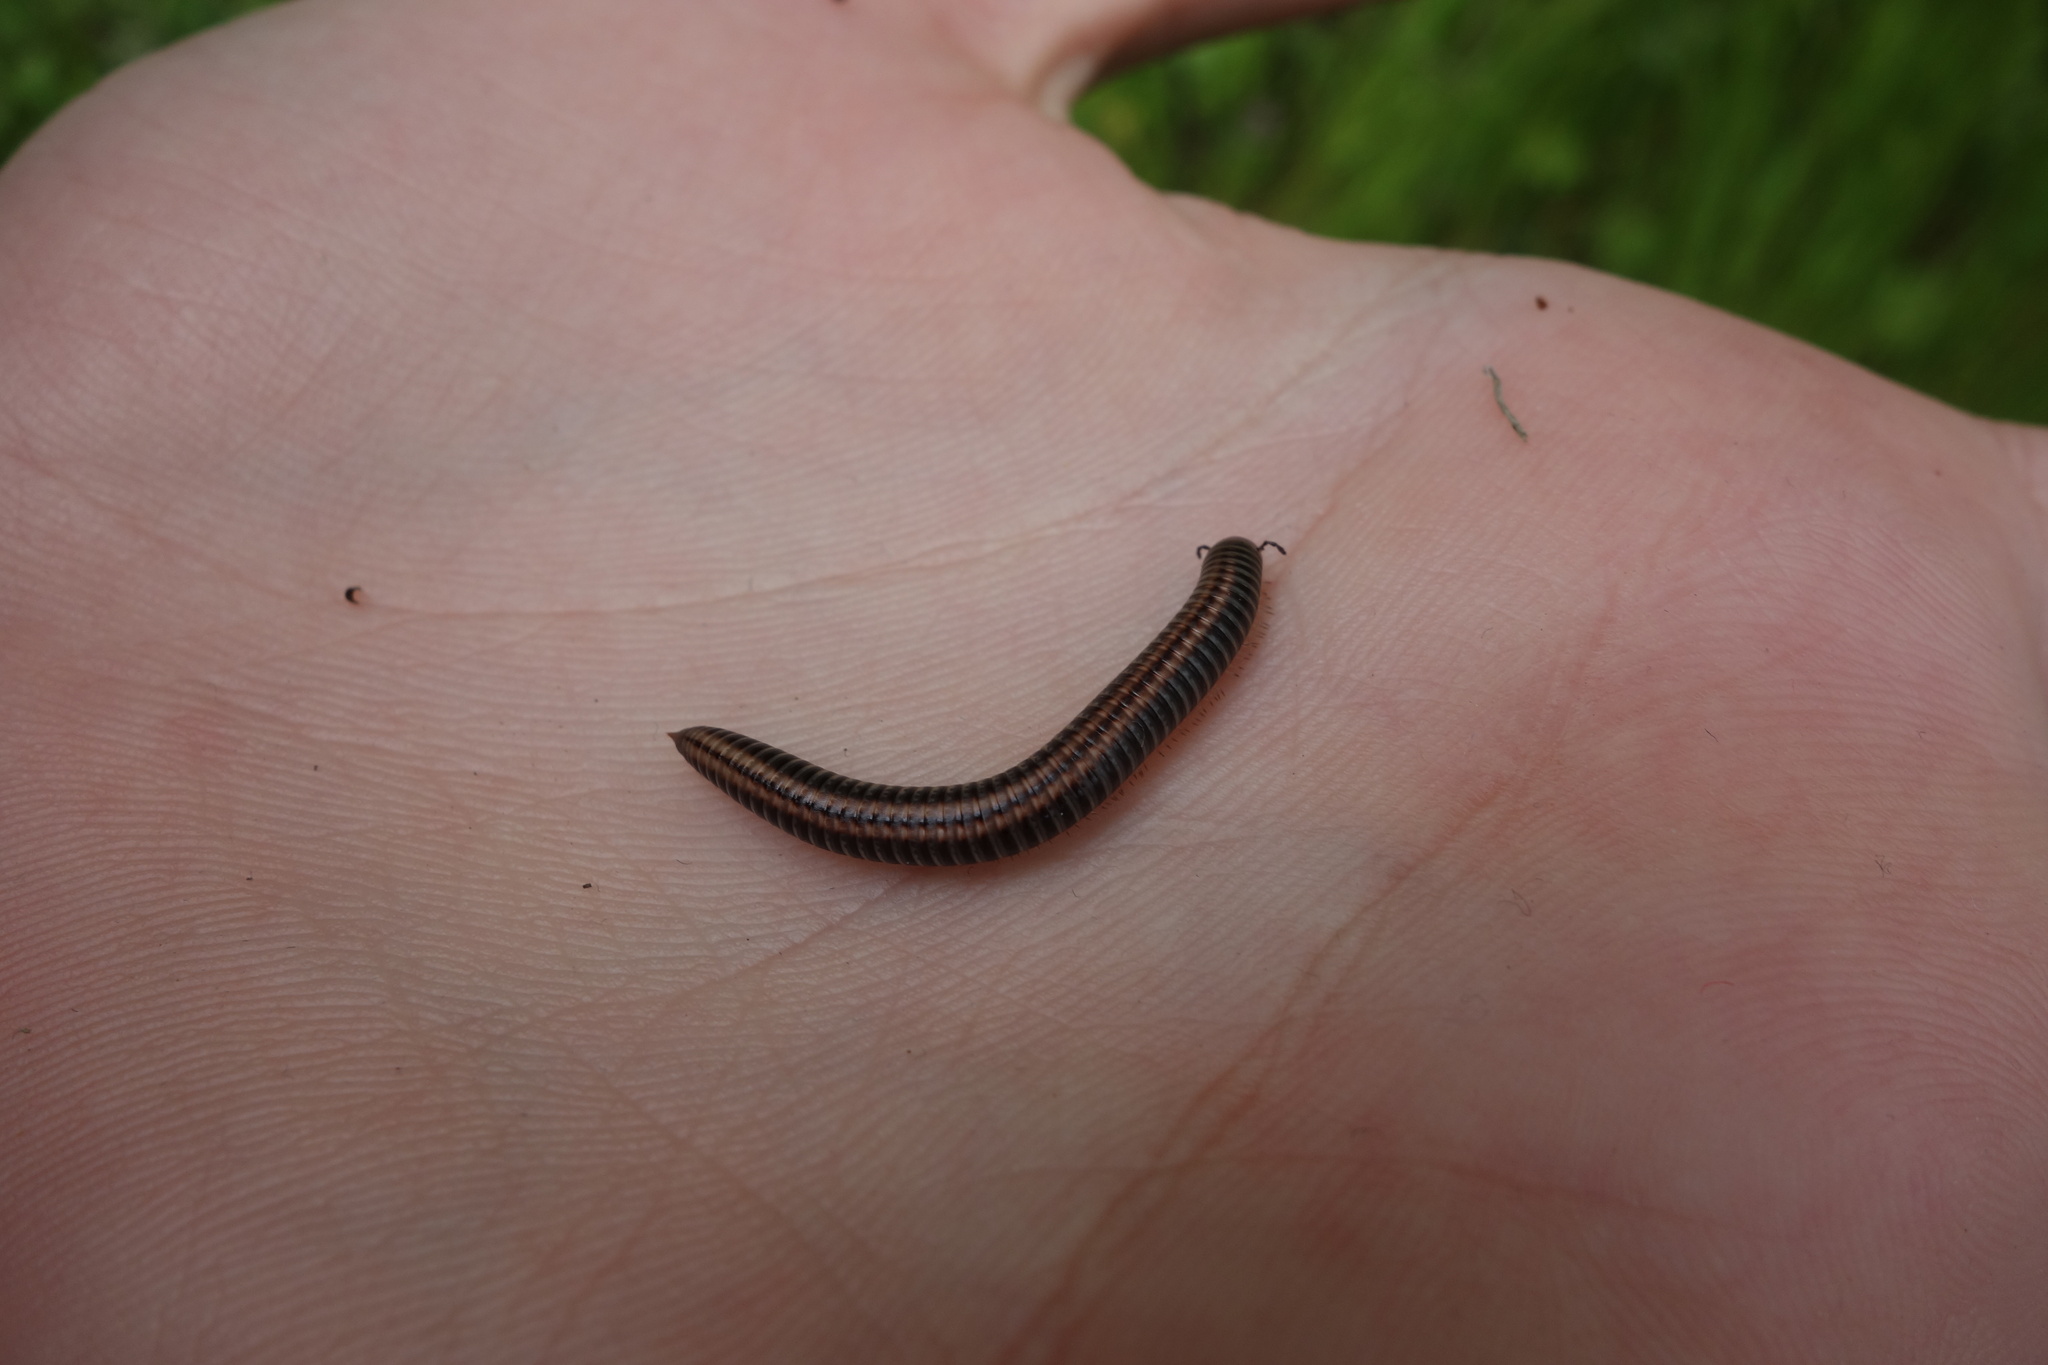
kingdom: Animalia
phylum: Arthropoda
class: Diplopoda
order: Julida
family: Julidae
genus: Ommatoiulus
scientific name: Ommatoiulus sabulosus
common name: Striped millipede
